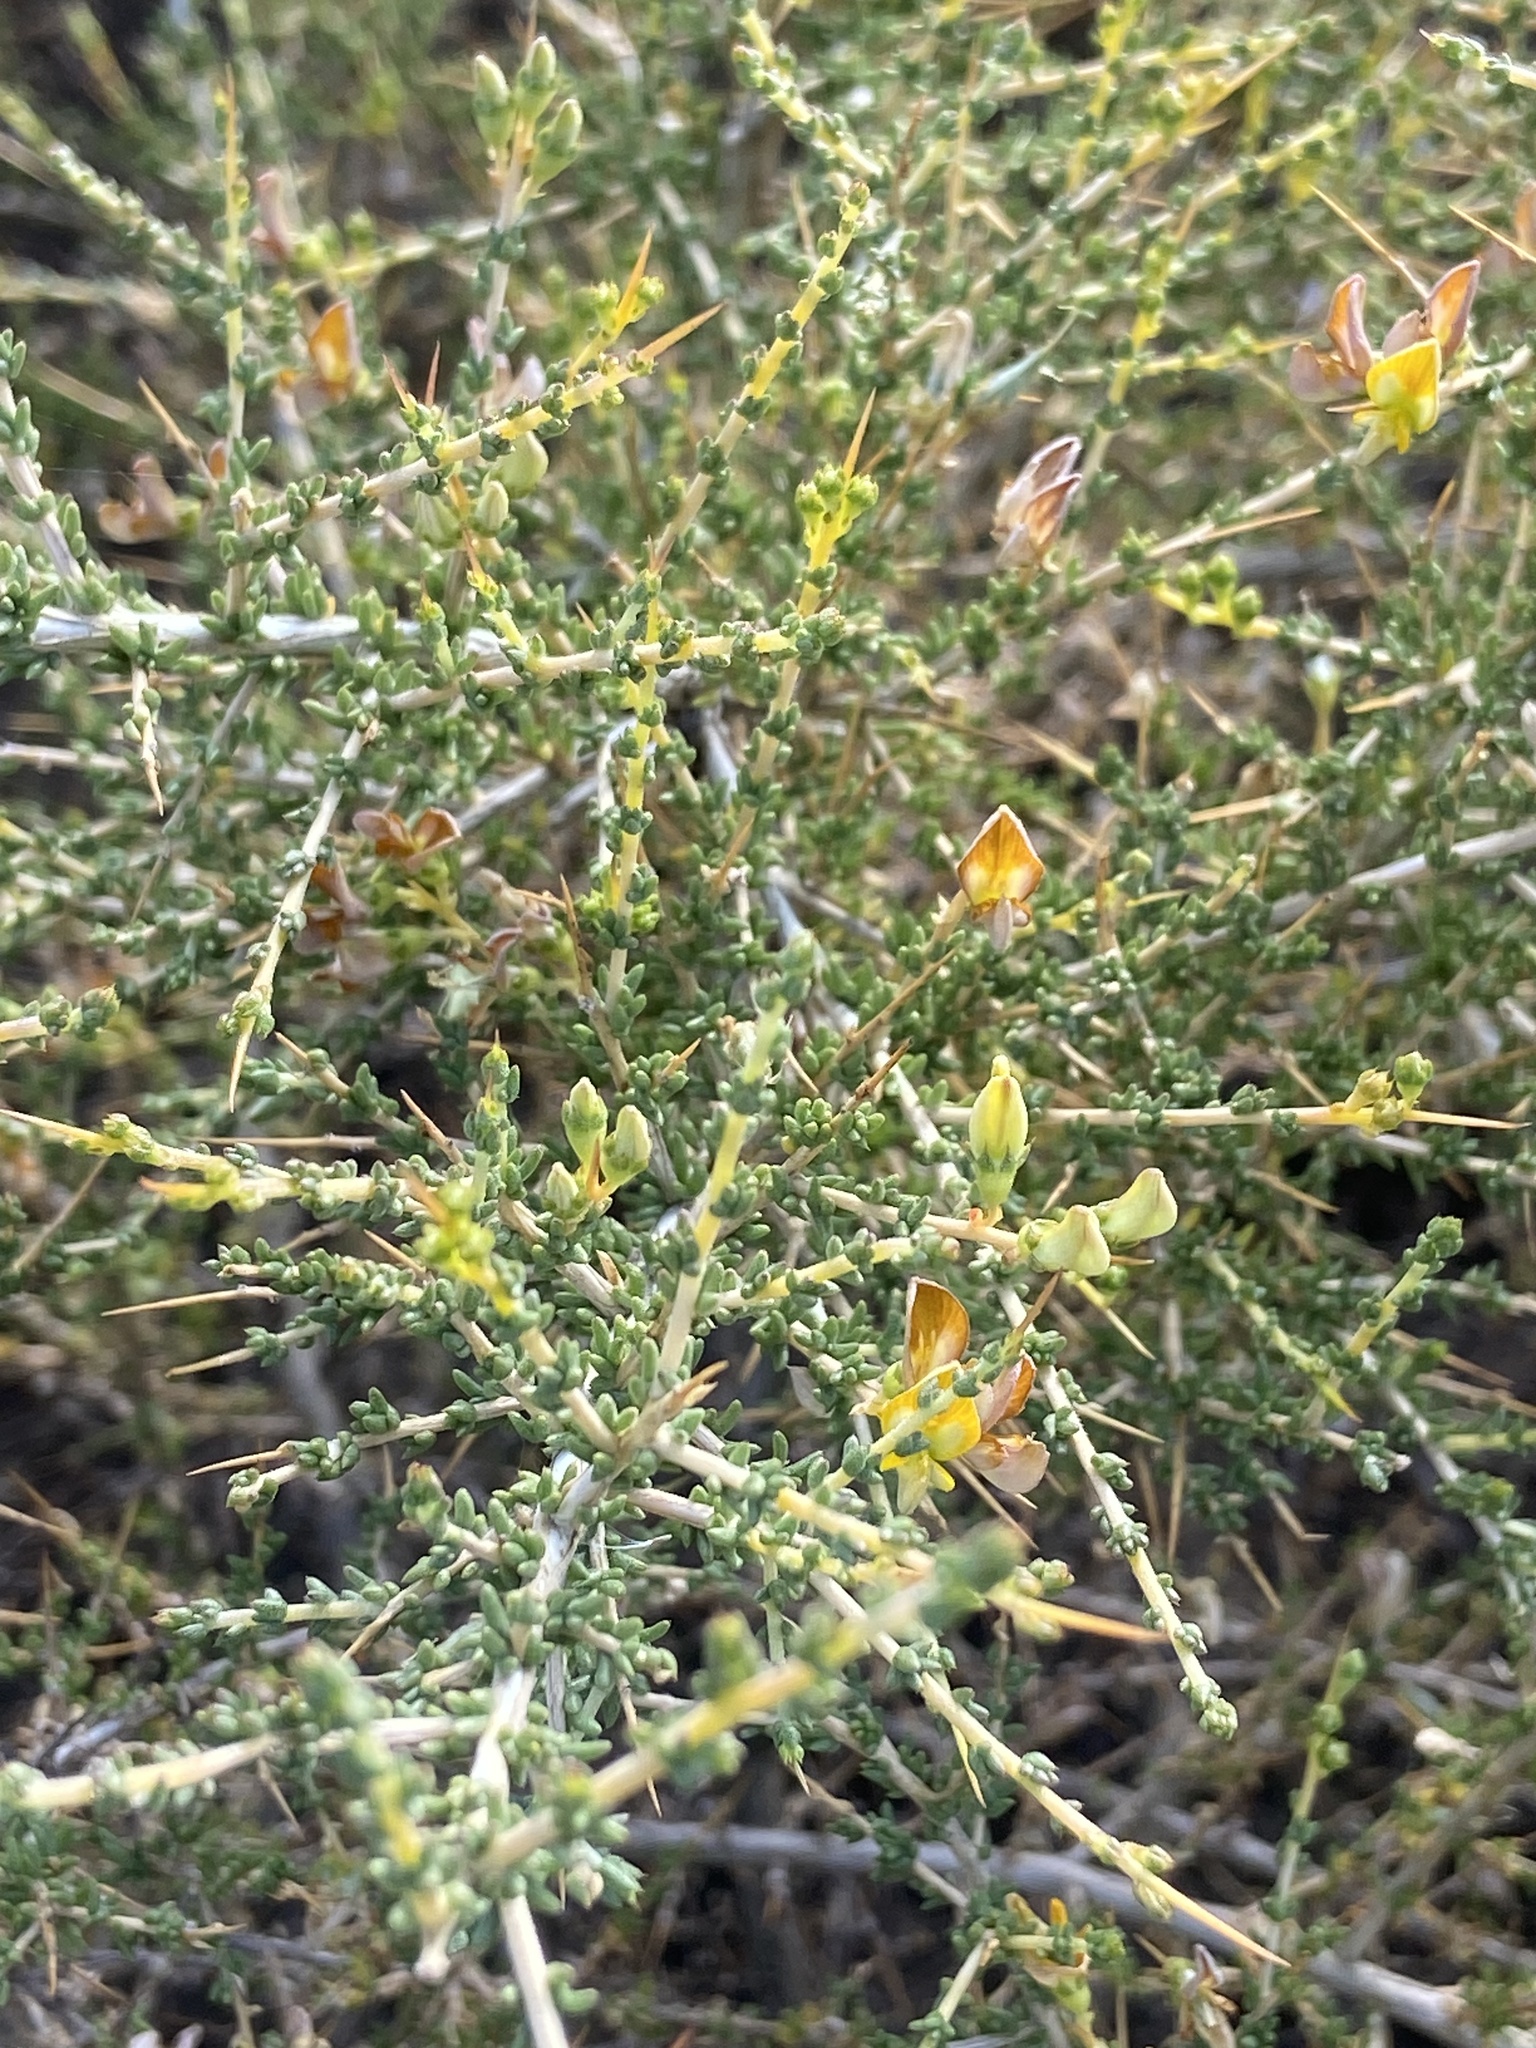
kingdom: Plantae
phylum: Tracheophyta
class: Magnoliopsida
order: Fabales
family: Fabaceae
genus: Aspalathus
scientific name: Aspalathus acuminata
